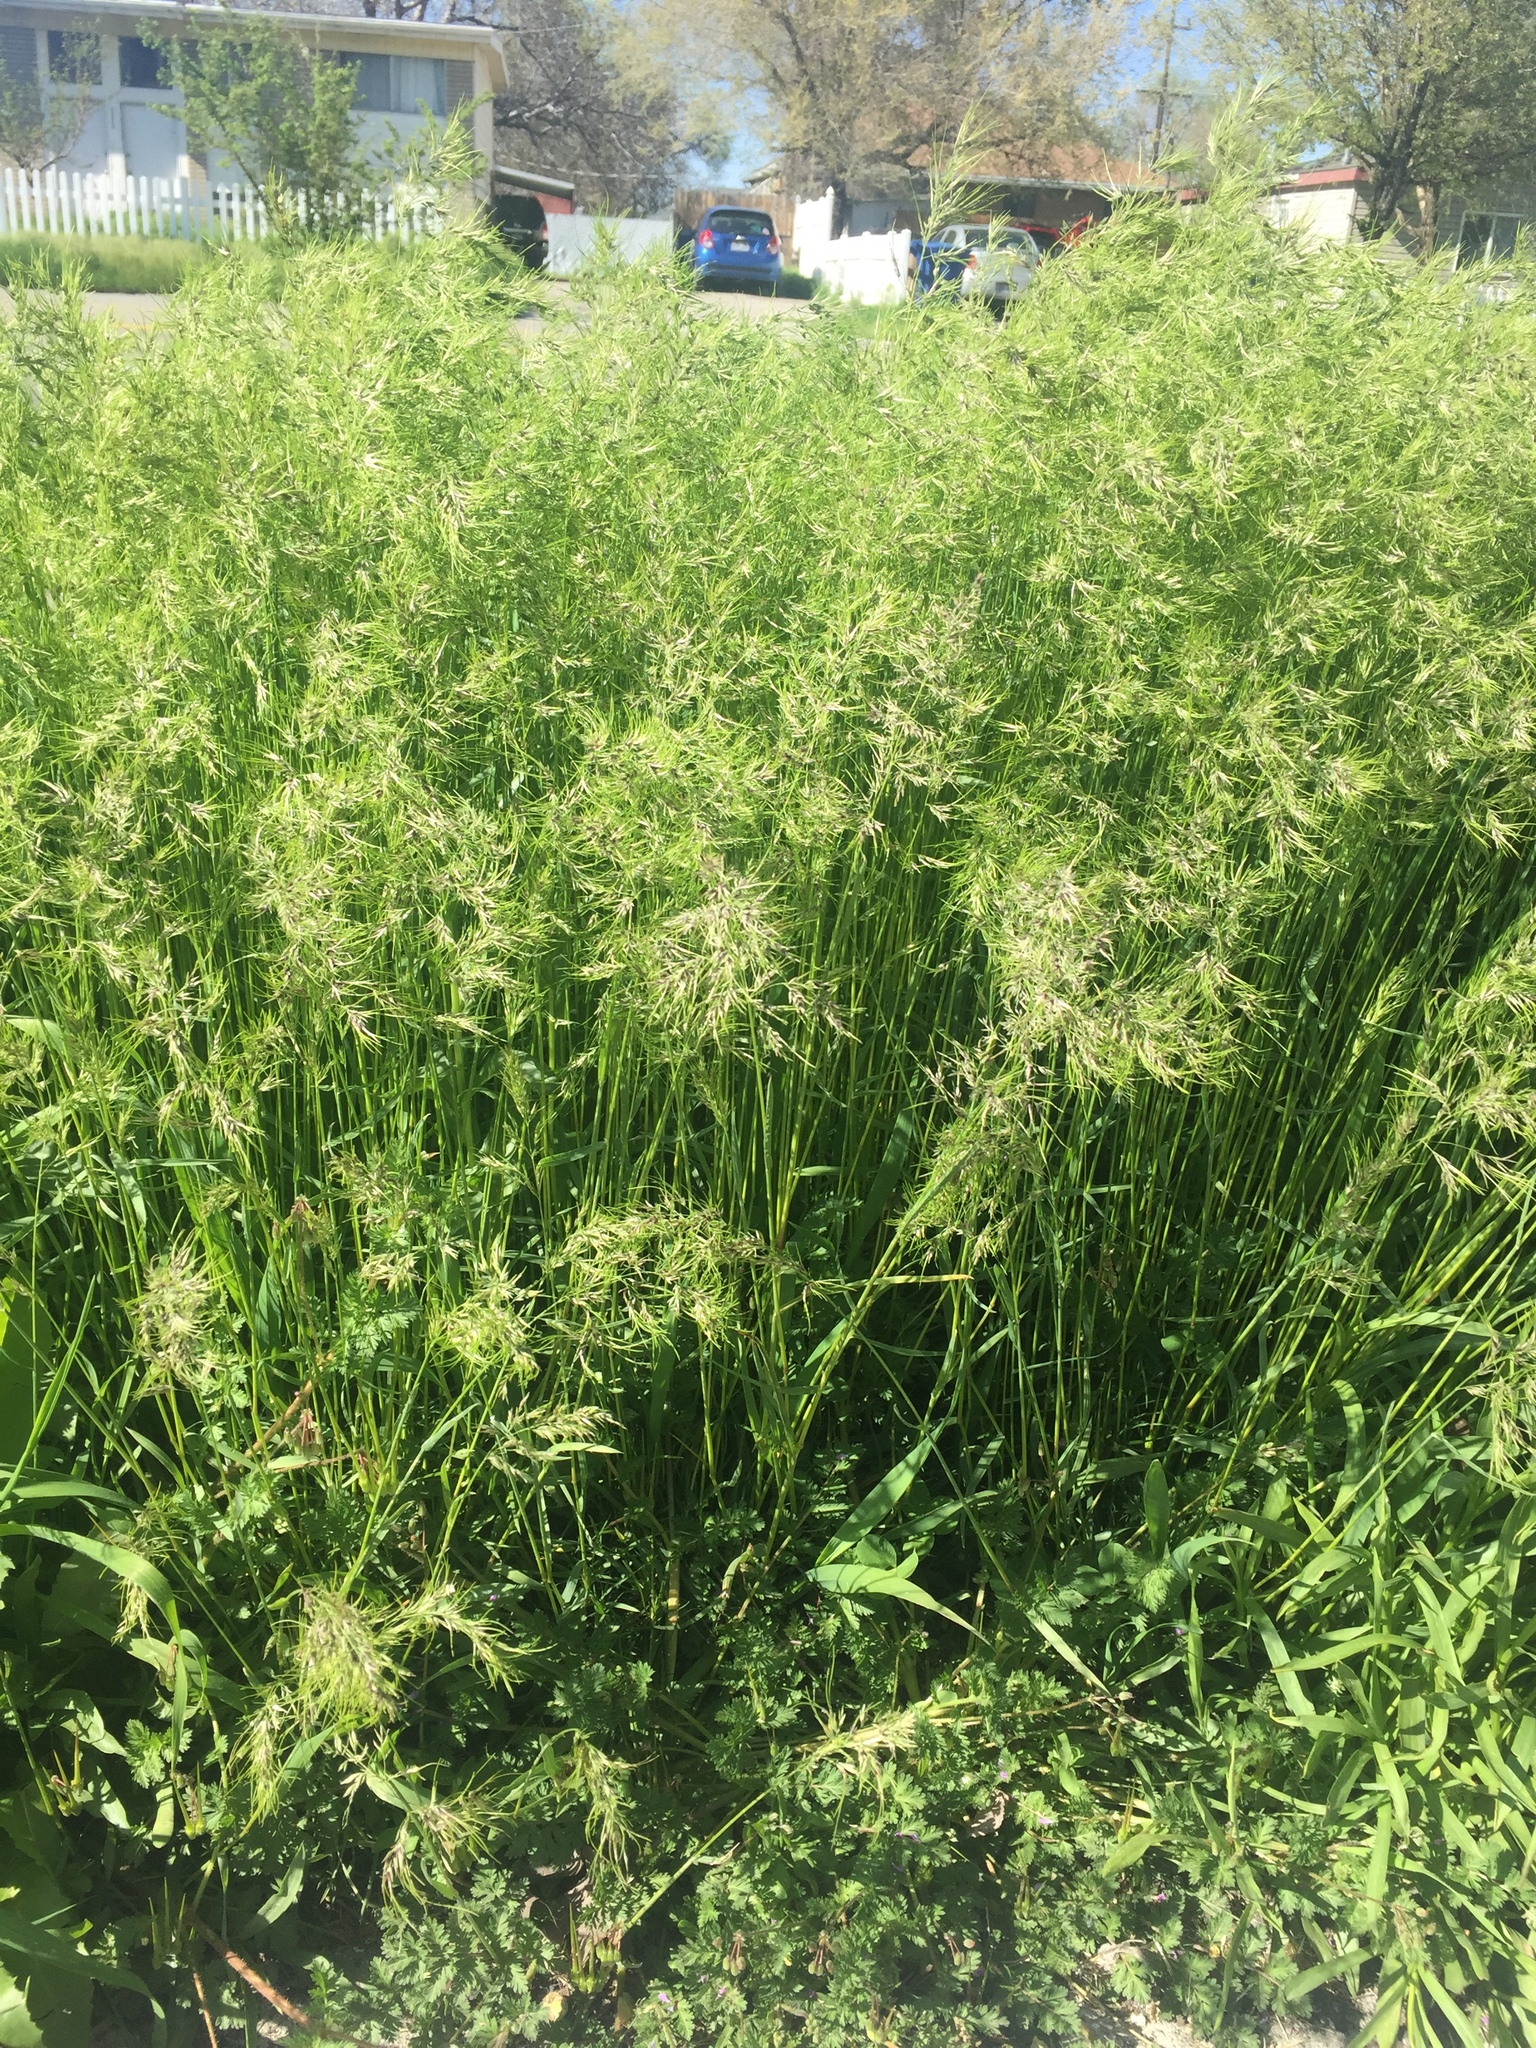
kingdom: Plantae
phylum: Tracheophyta
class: Liliopsida
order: Poales
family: Poaceae
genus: Poa
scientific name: Poa bulbosa
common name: Bulbous bluegrass
